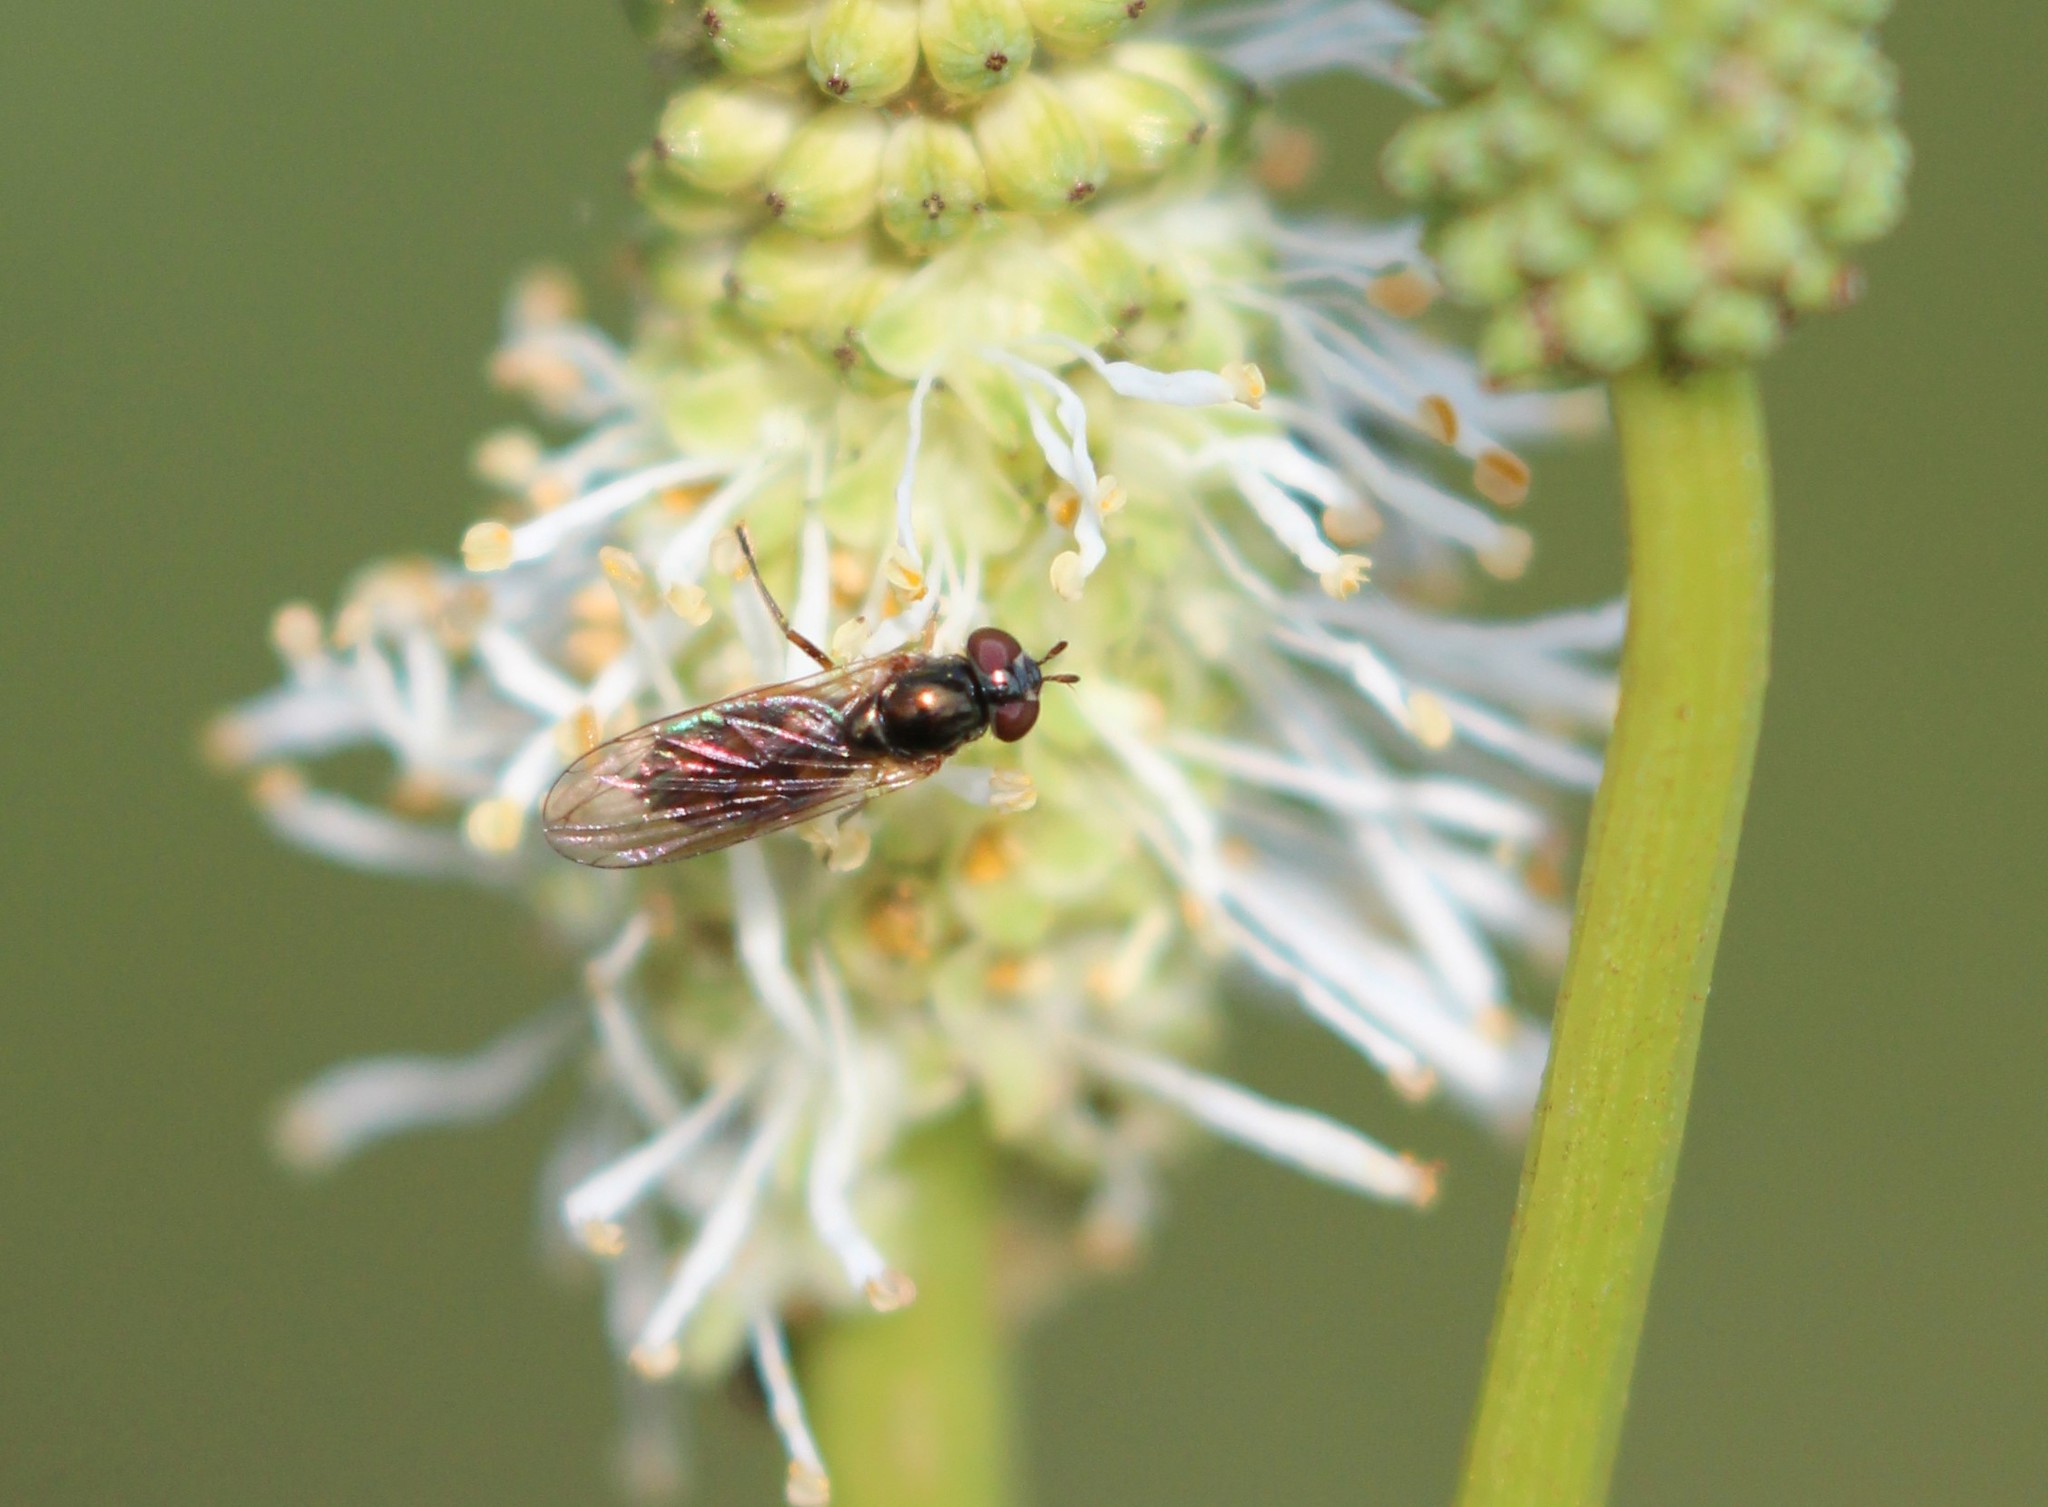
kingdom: Animalia
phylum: Arthropoda
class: Insecta
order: Diptera
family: Syrphidae
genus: Melanostoma
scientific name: Melanostoma mellina
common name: Hover fly
